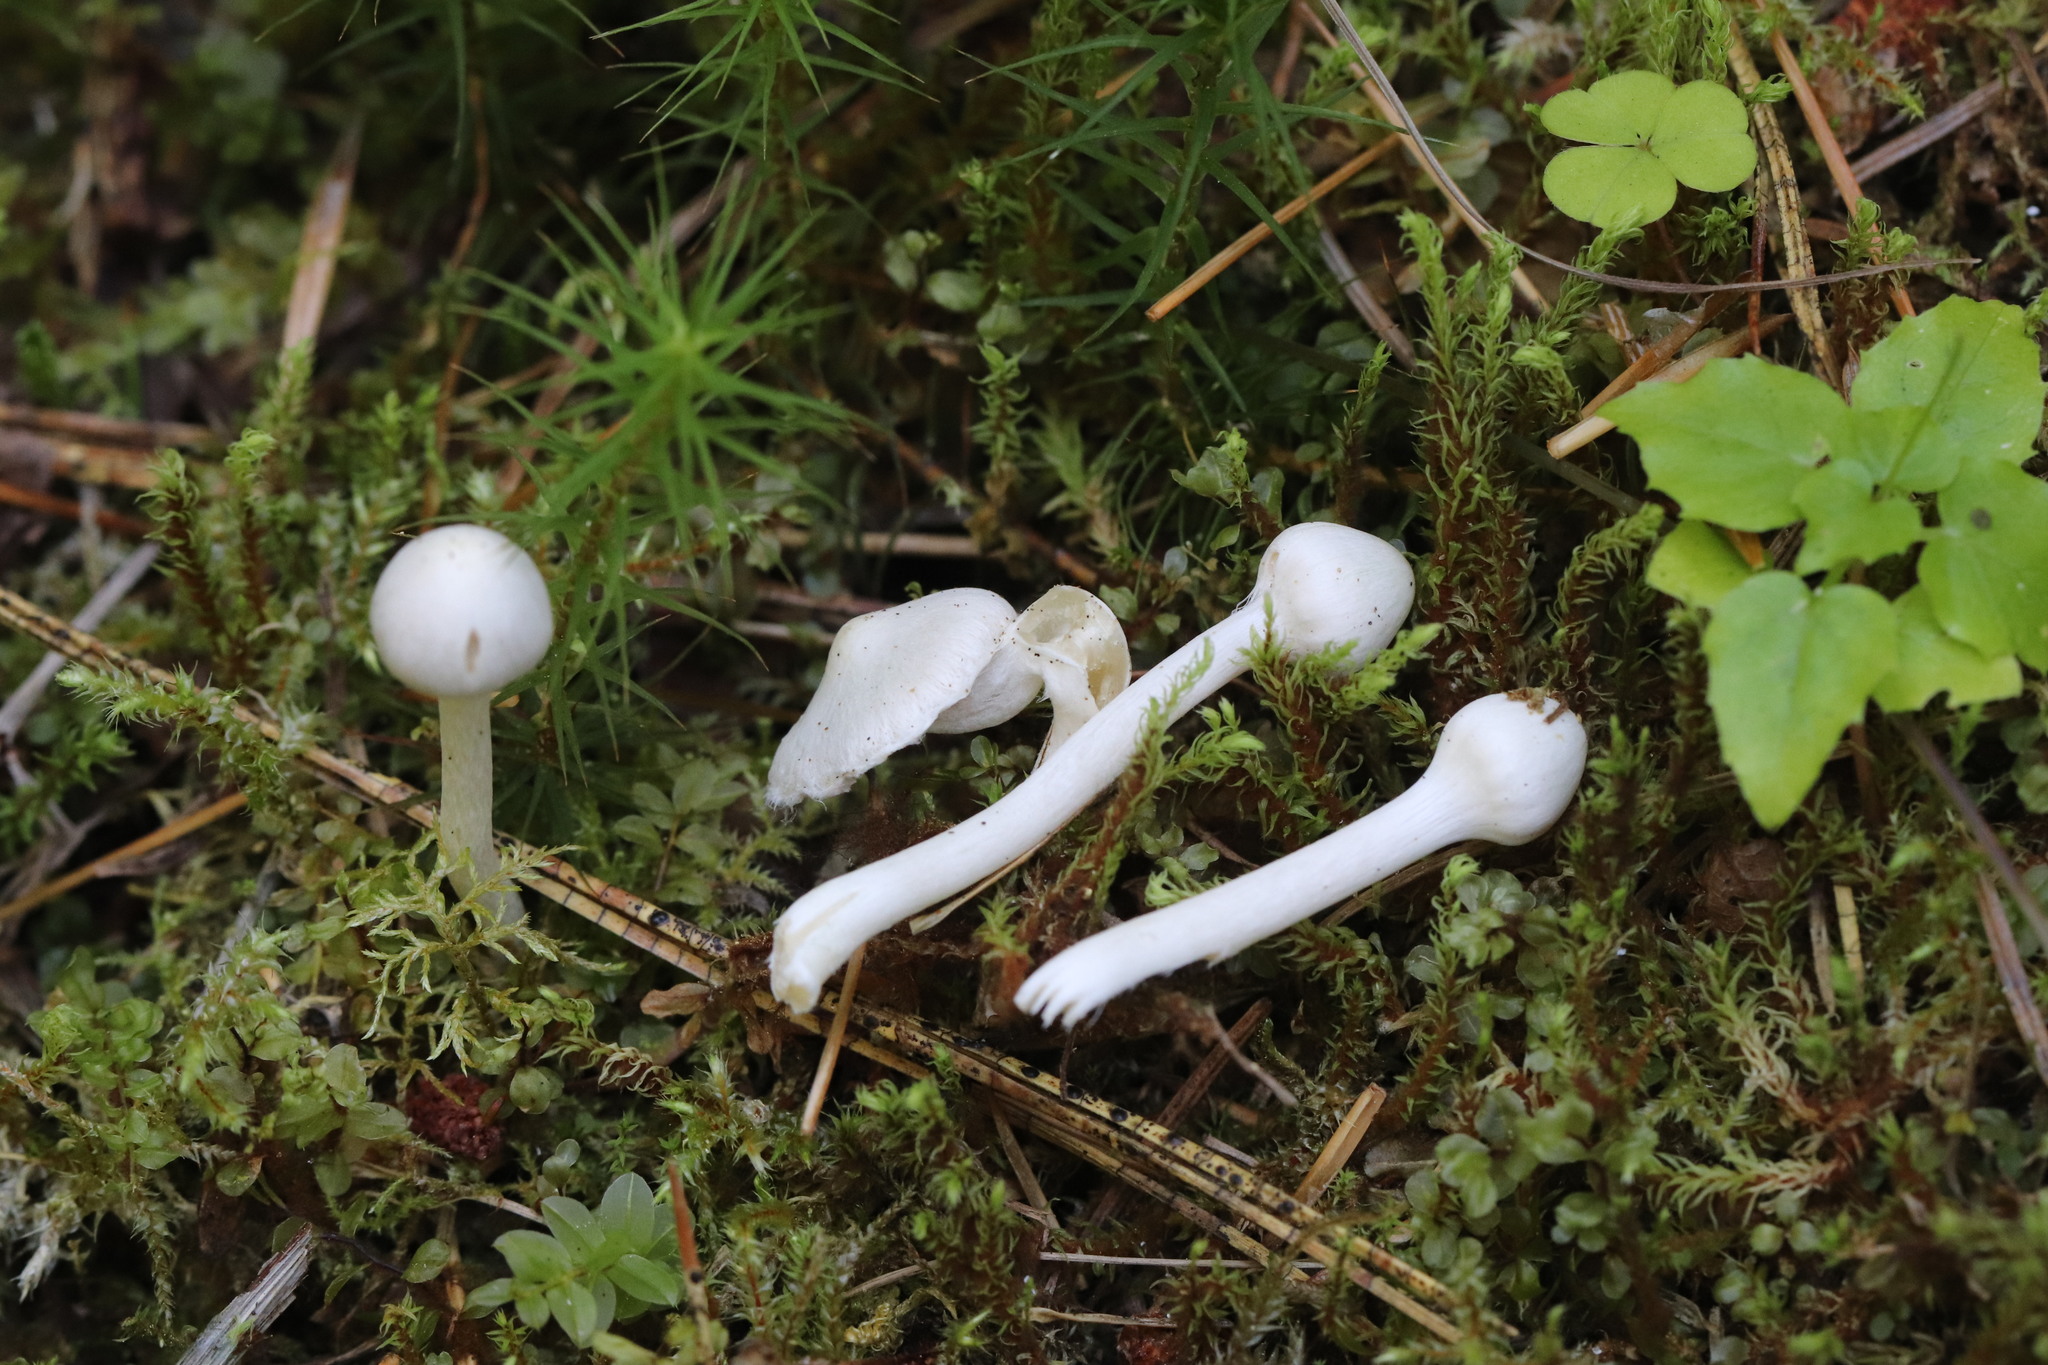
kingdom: Fungi
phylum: Basidiomycota
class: Agaricomycetes
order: Agaricales
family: Inocybaceae
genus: Inocybe
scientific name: Inocybe geophylla
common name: White fibrecap
